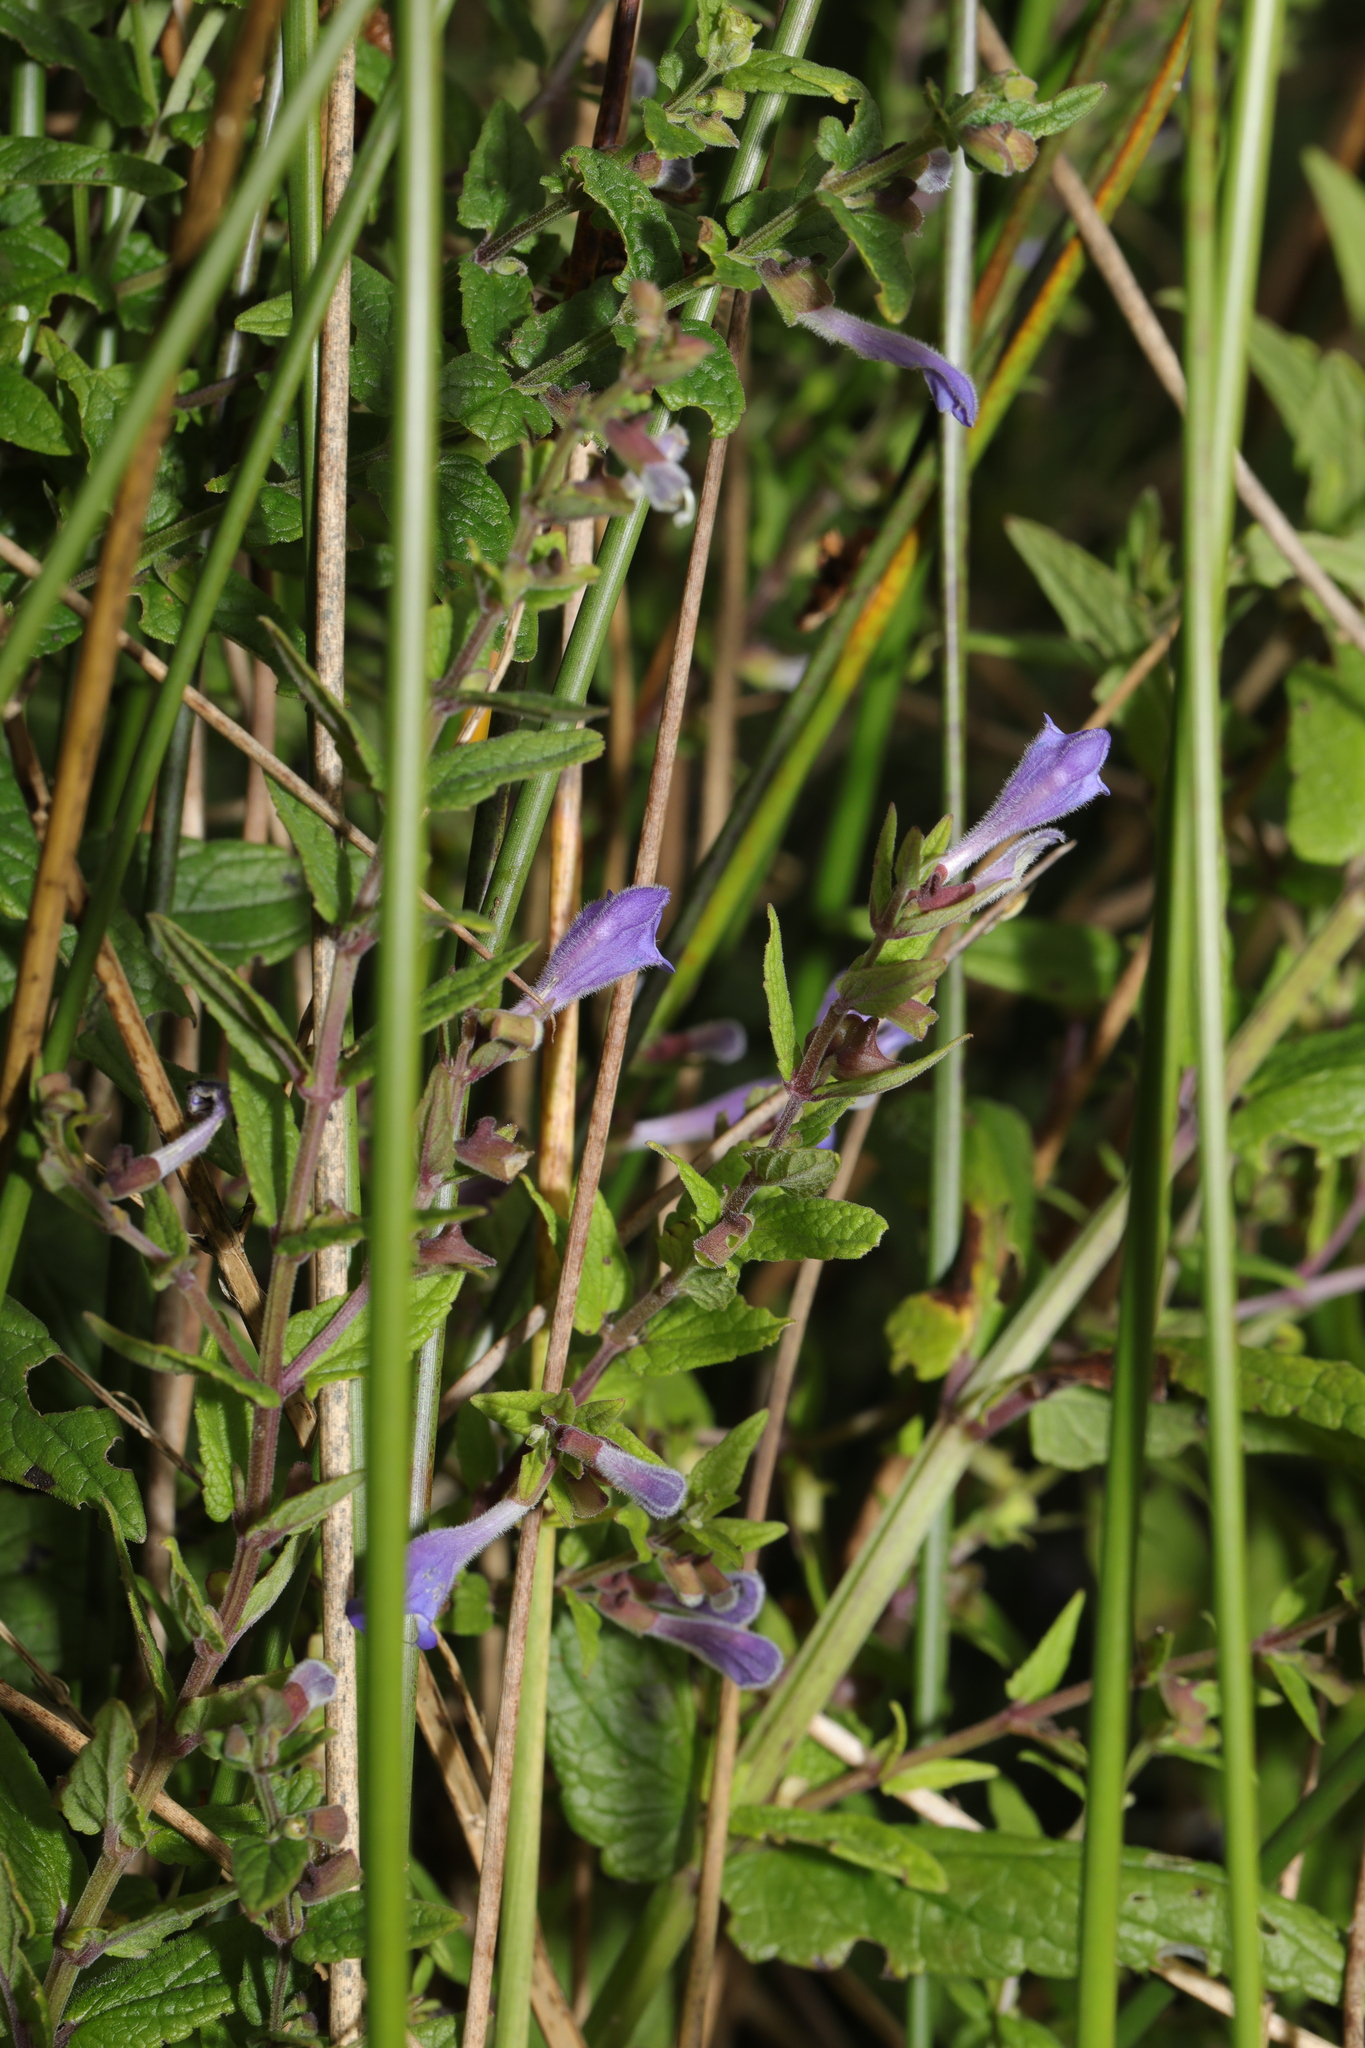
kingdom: Plantae
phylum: Tracheophyta
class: Magnoliopsida
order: Lamiales
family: Lamiaceae
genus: Scutellaria
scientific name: Scutellaria galericulata
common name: Skullcap
